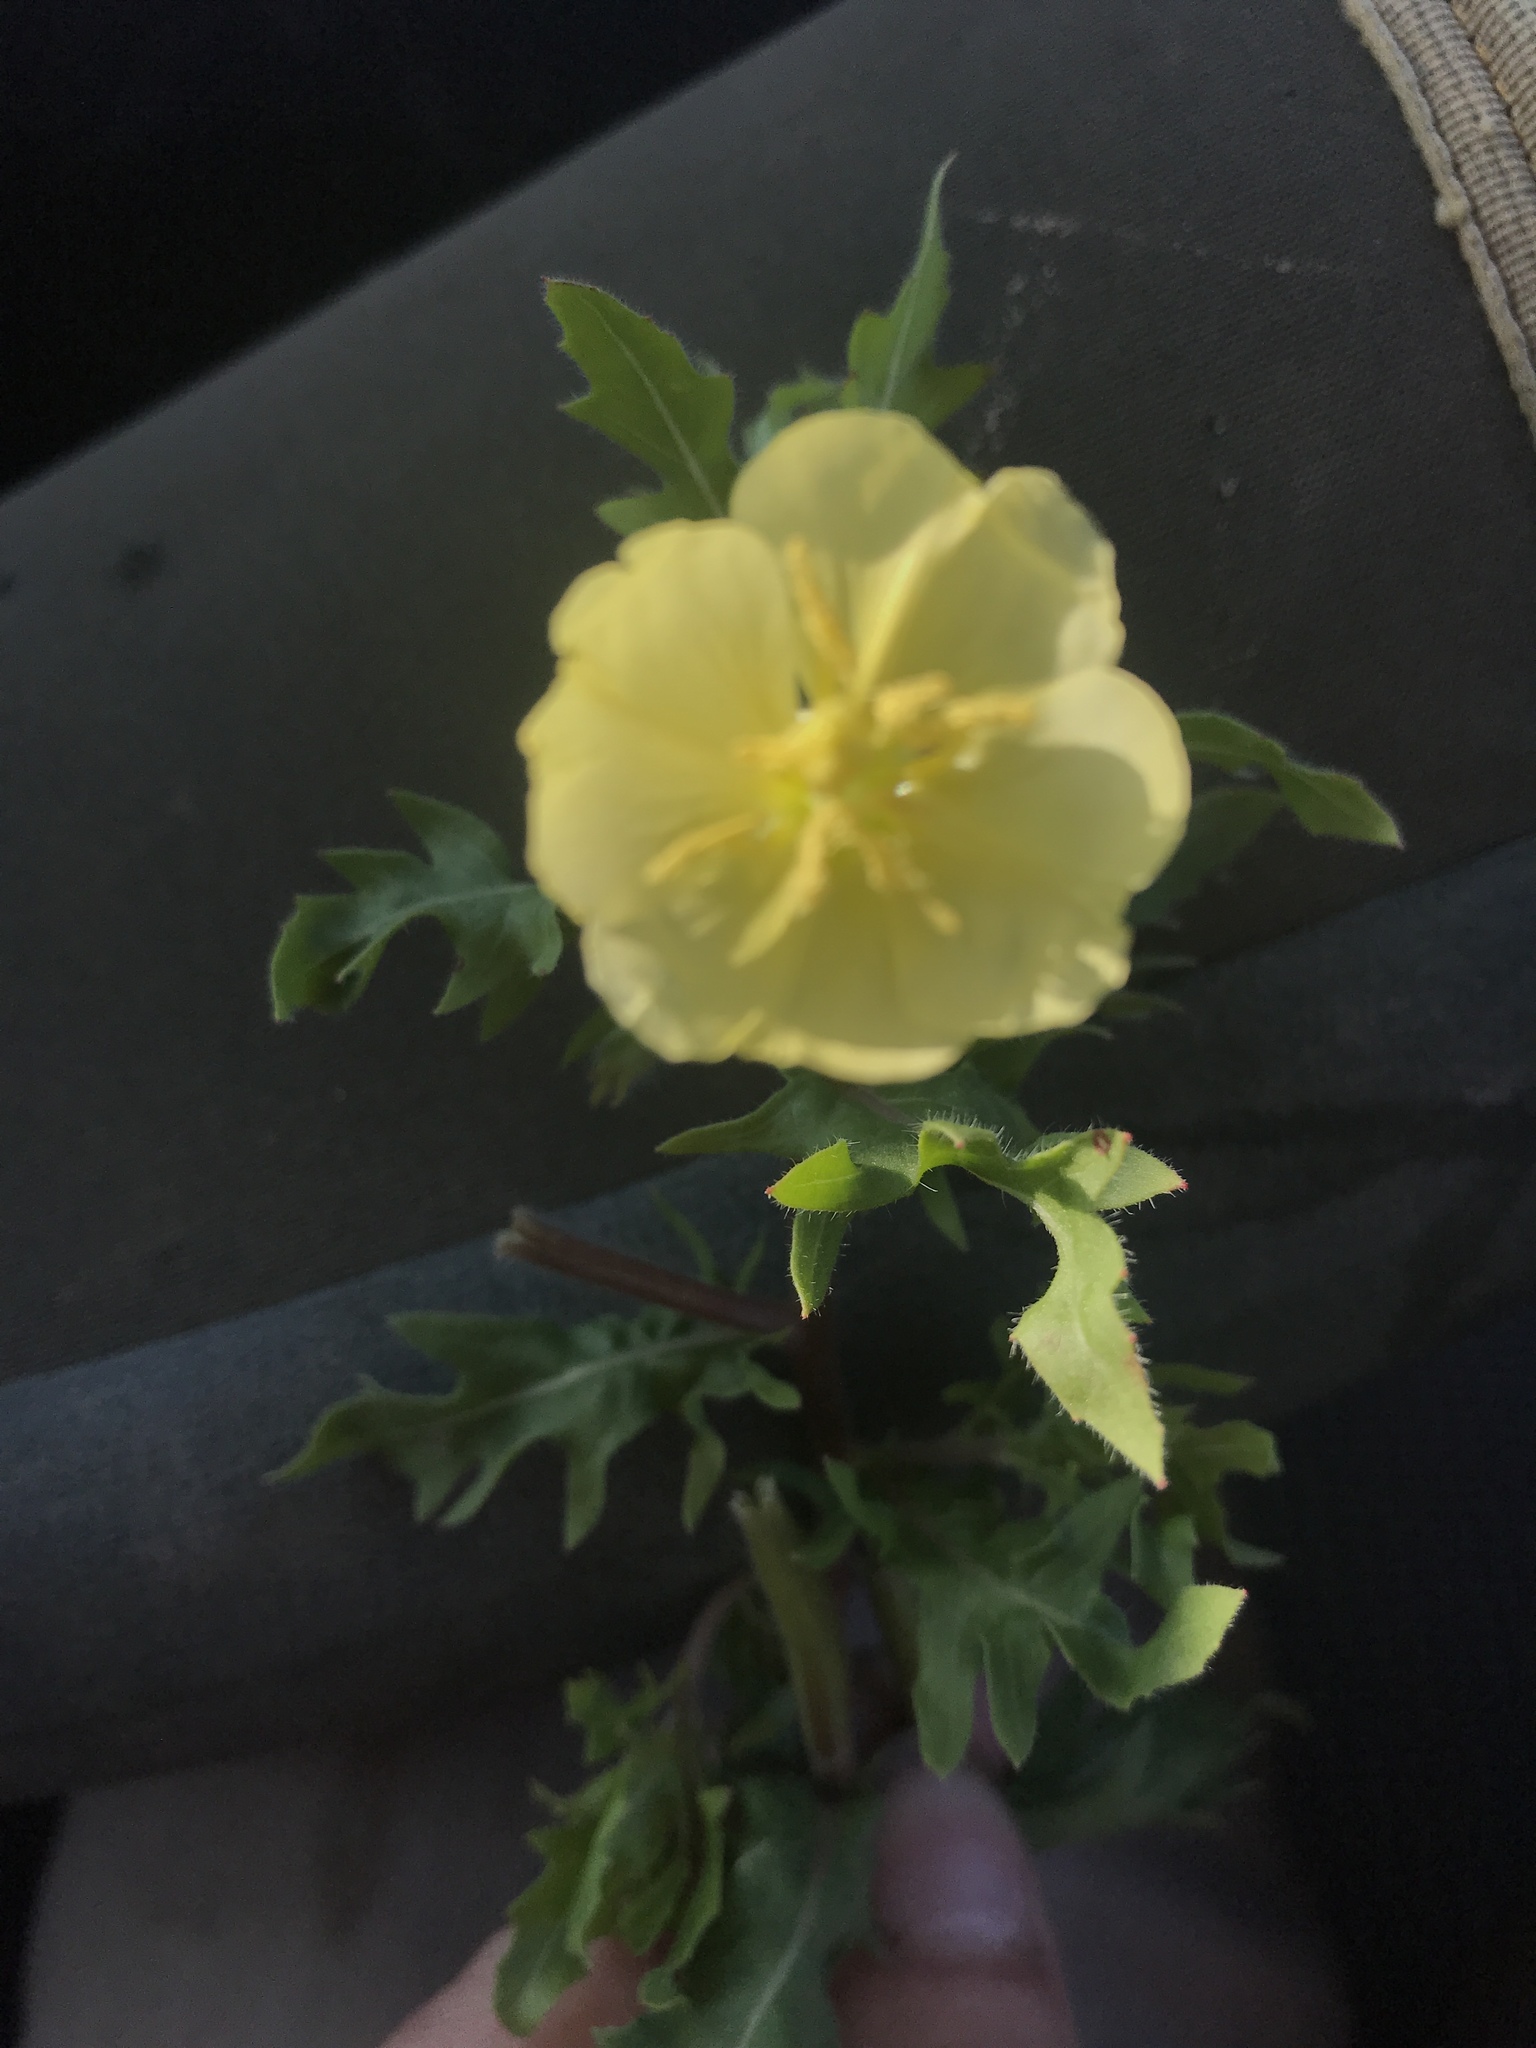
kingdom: Plantae
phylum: Tracheophyta
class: Magnoliopsida
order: Myrtales
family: Onagraceae
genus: Oenothera
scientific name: Oenothera laciniata
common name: Cut-leaved evening-primrose
